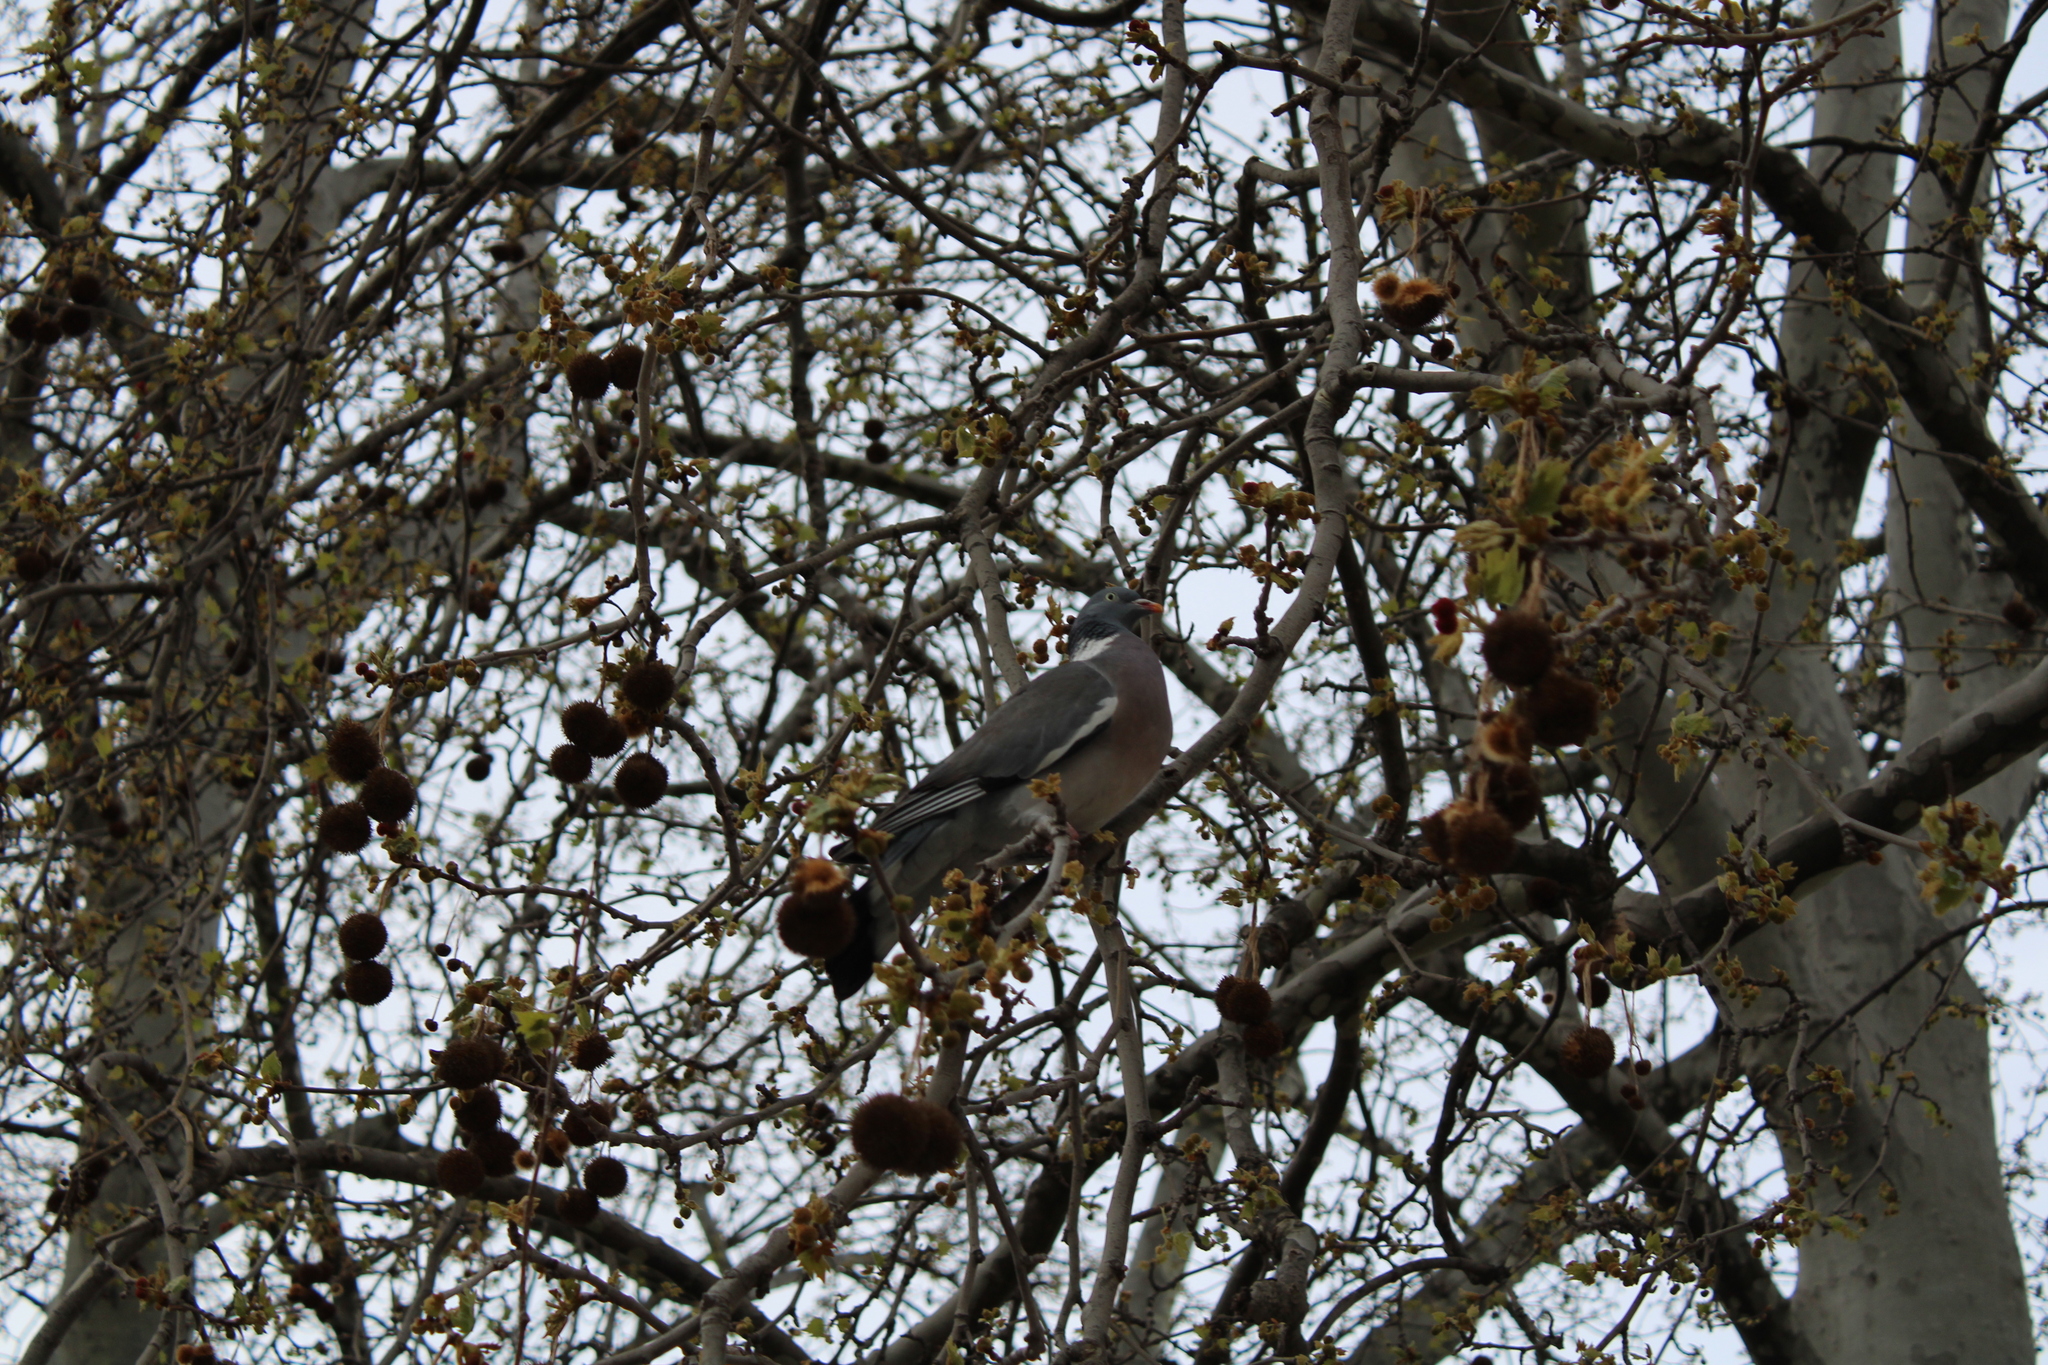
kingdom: Animalia
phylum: Chordata
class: Aves
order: Columbiformes
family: Columbidae
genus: Columba
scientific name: Columba palumbus
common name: Common wood pigeon
